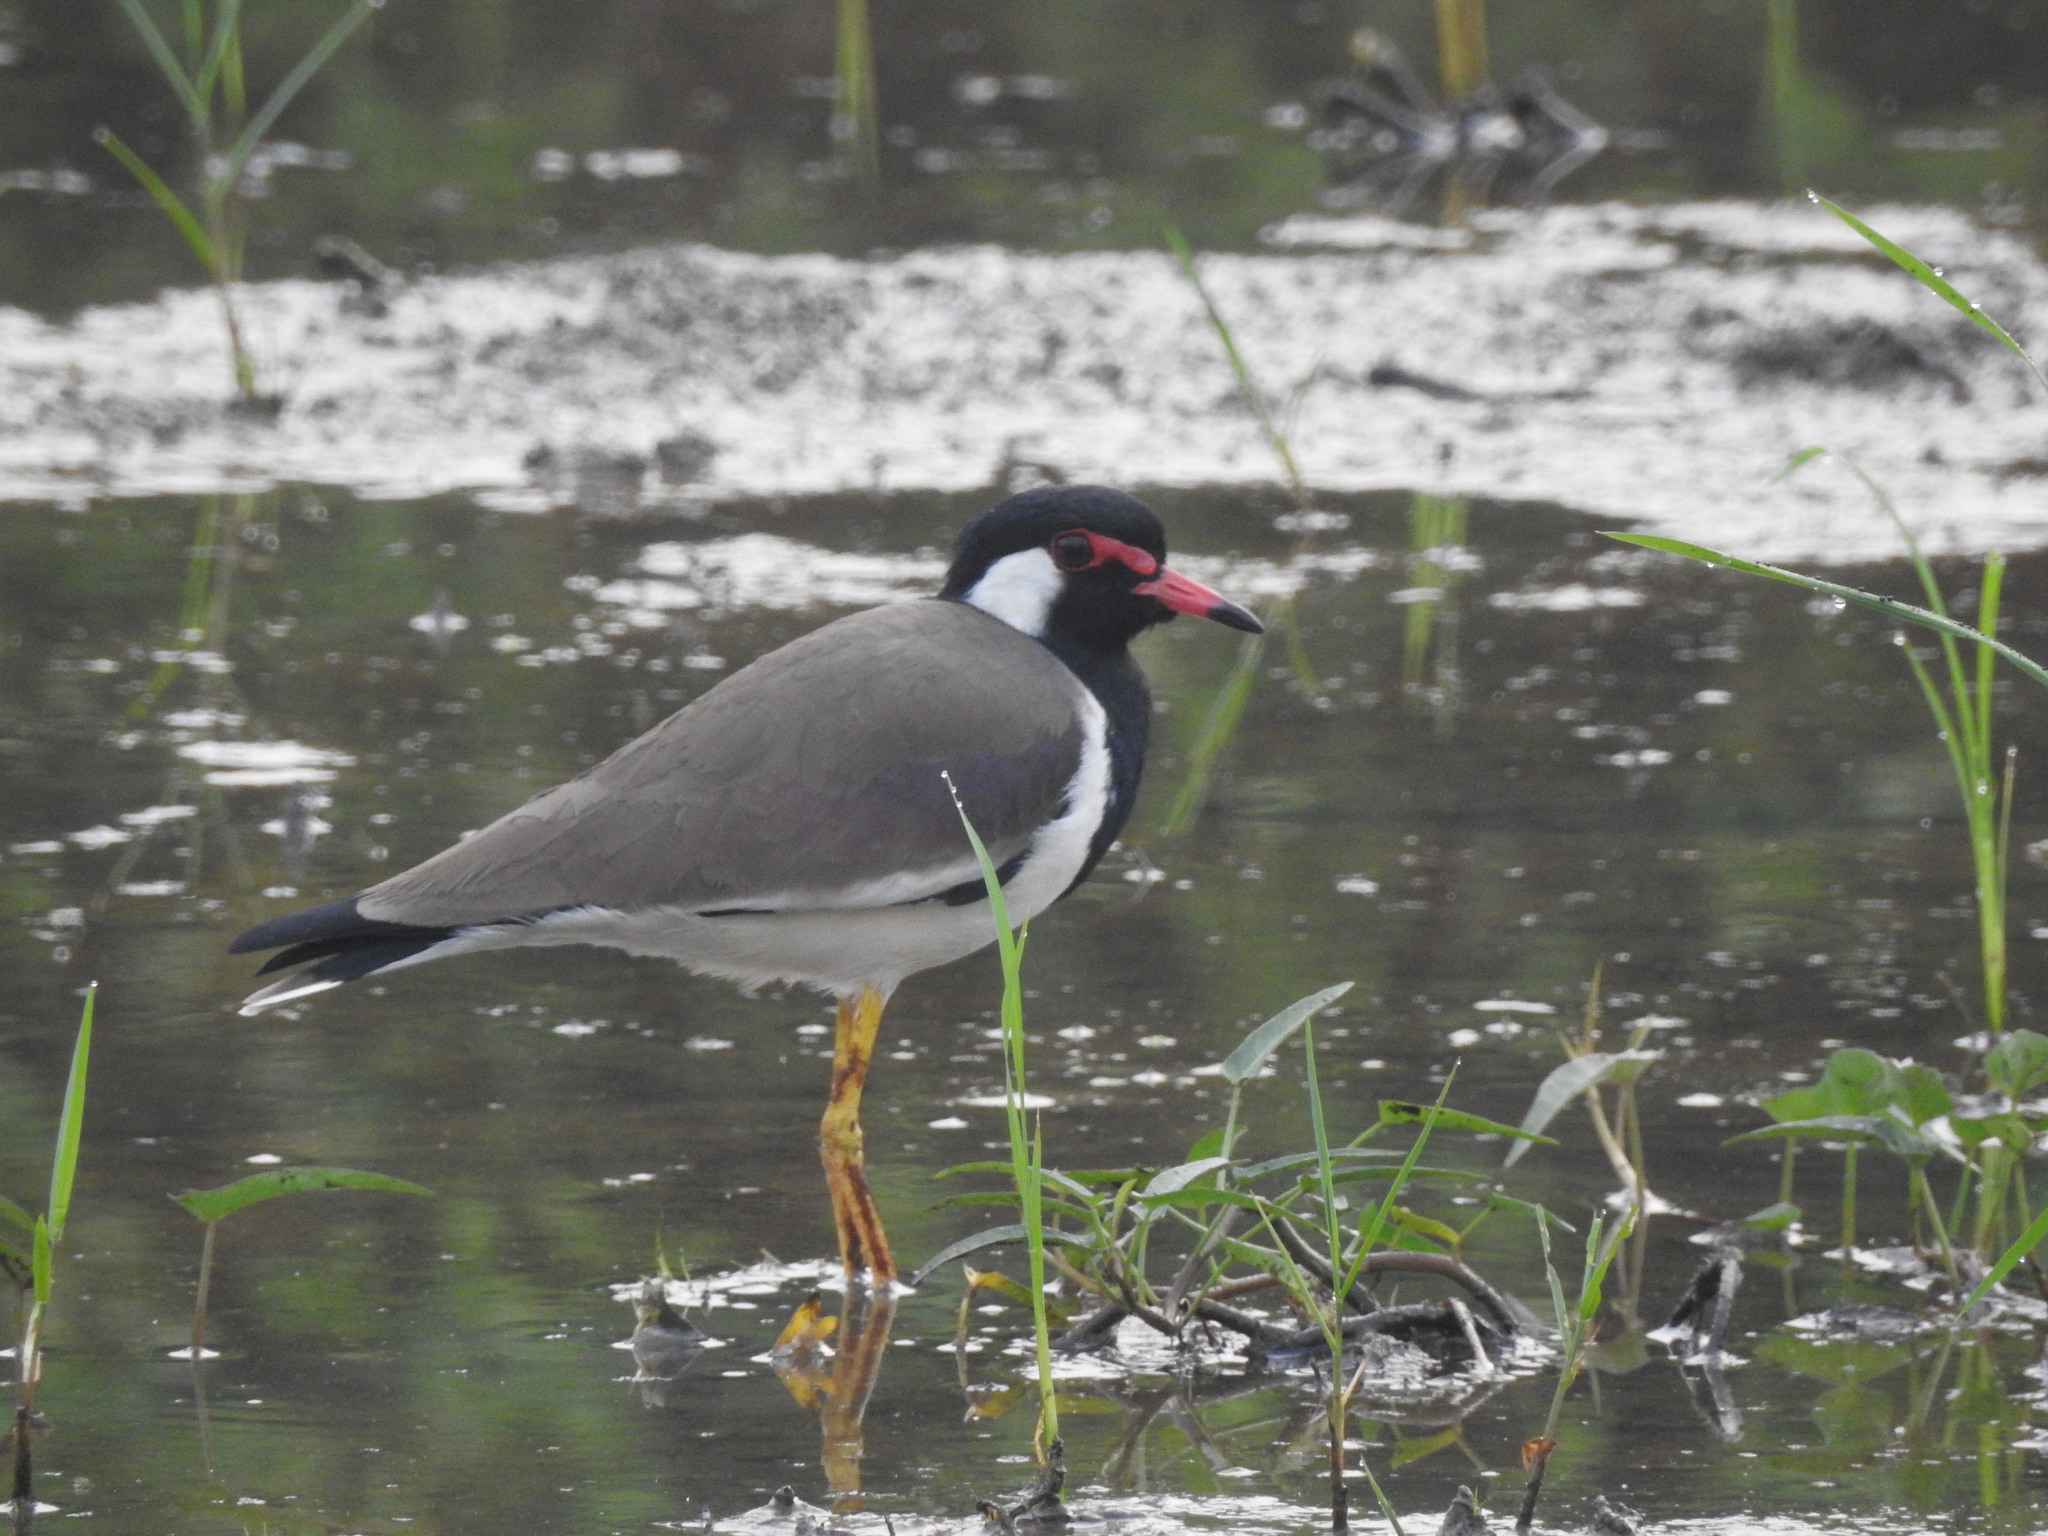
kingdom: Animalia
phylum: Chordata
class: Aves
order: Charadriiformes
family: Charadriidae
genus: Vanellus
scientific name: Vanellus indicus
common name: Red-wattled lapwing
